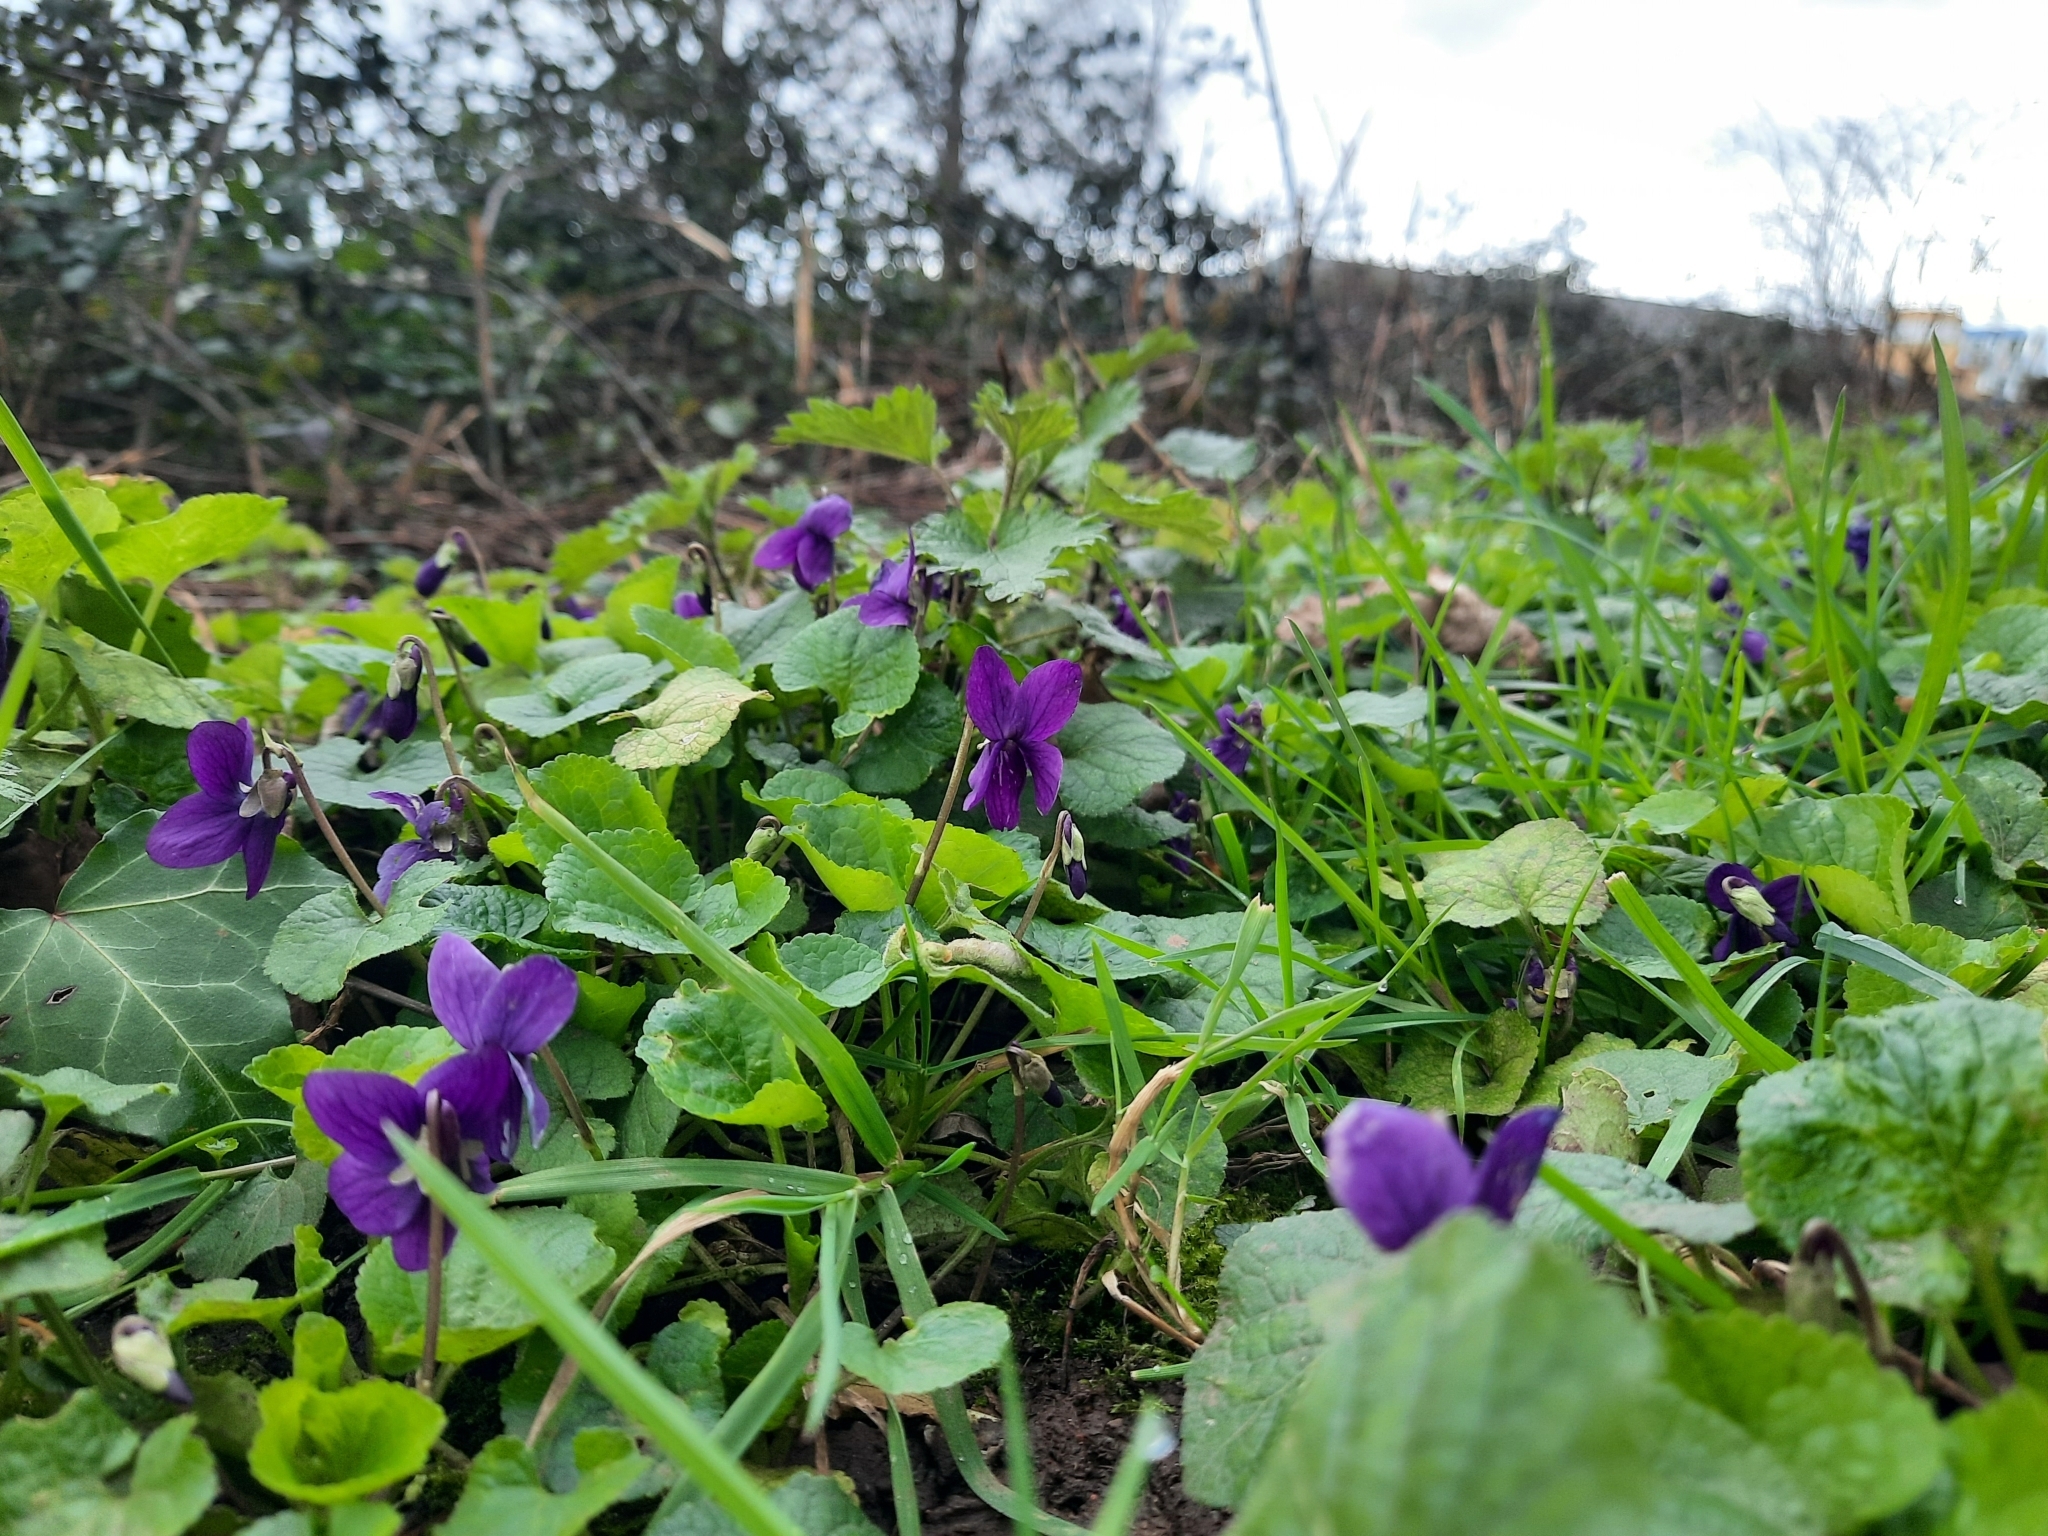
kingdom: Plantae
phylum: Tracheophyta
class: Magnoliopsida
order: Malpighiales
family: Violaceae
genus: Viola
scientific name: Viola odorata
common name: Sweet violet
